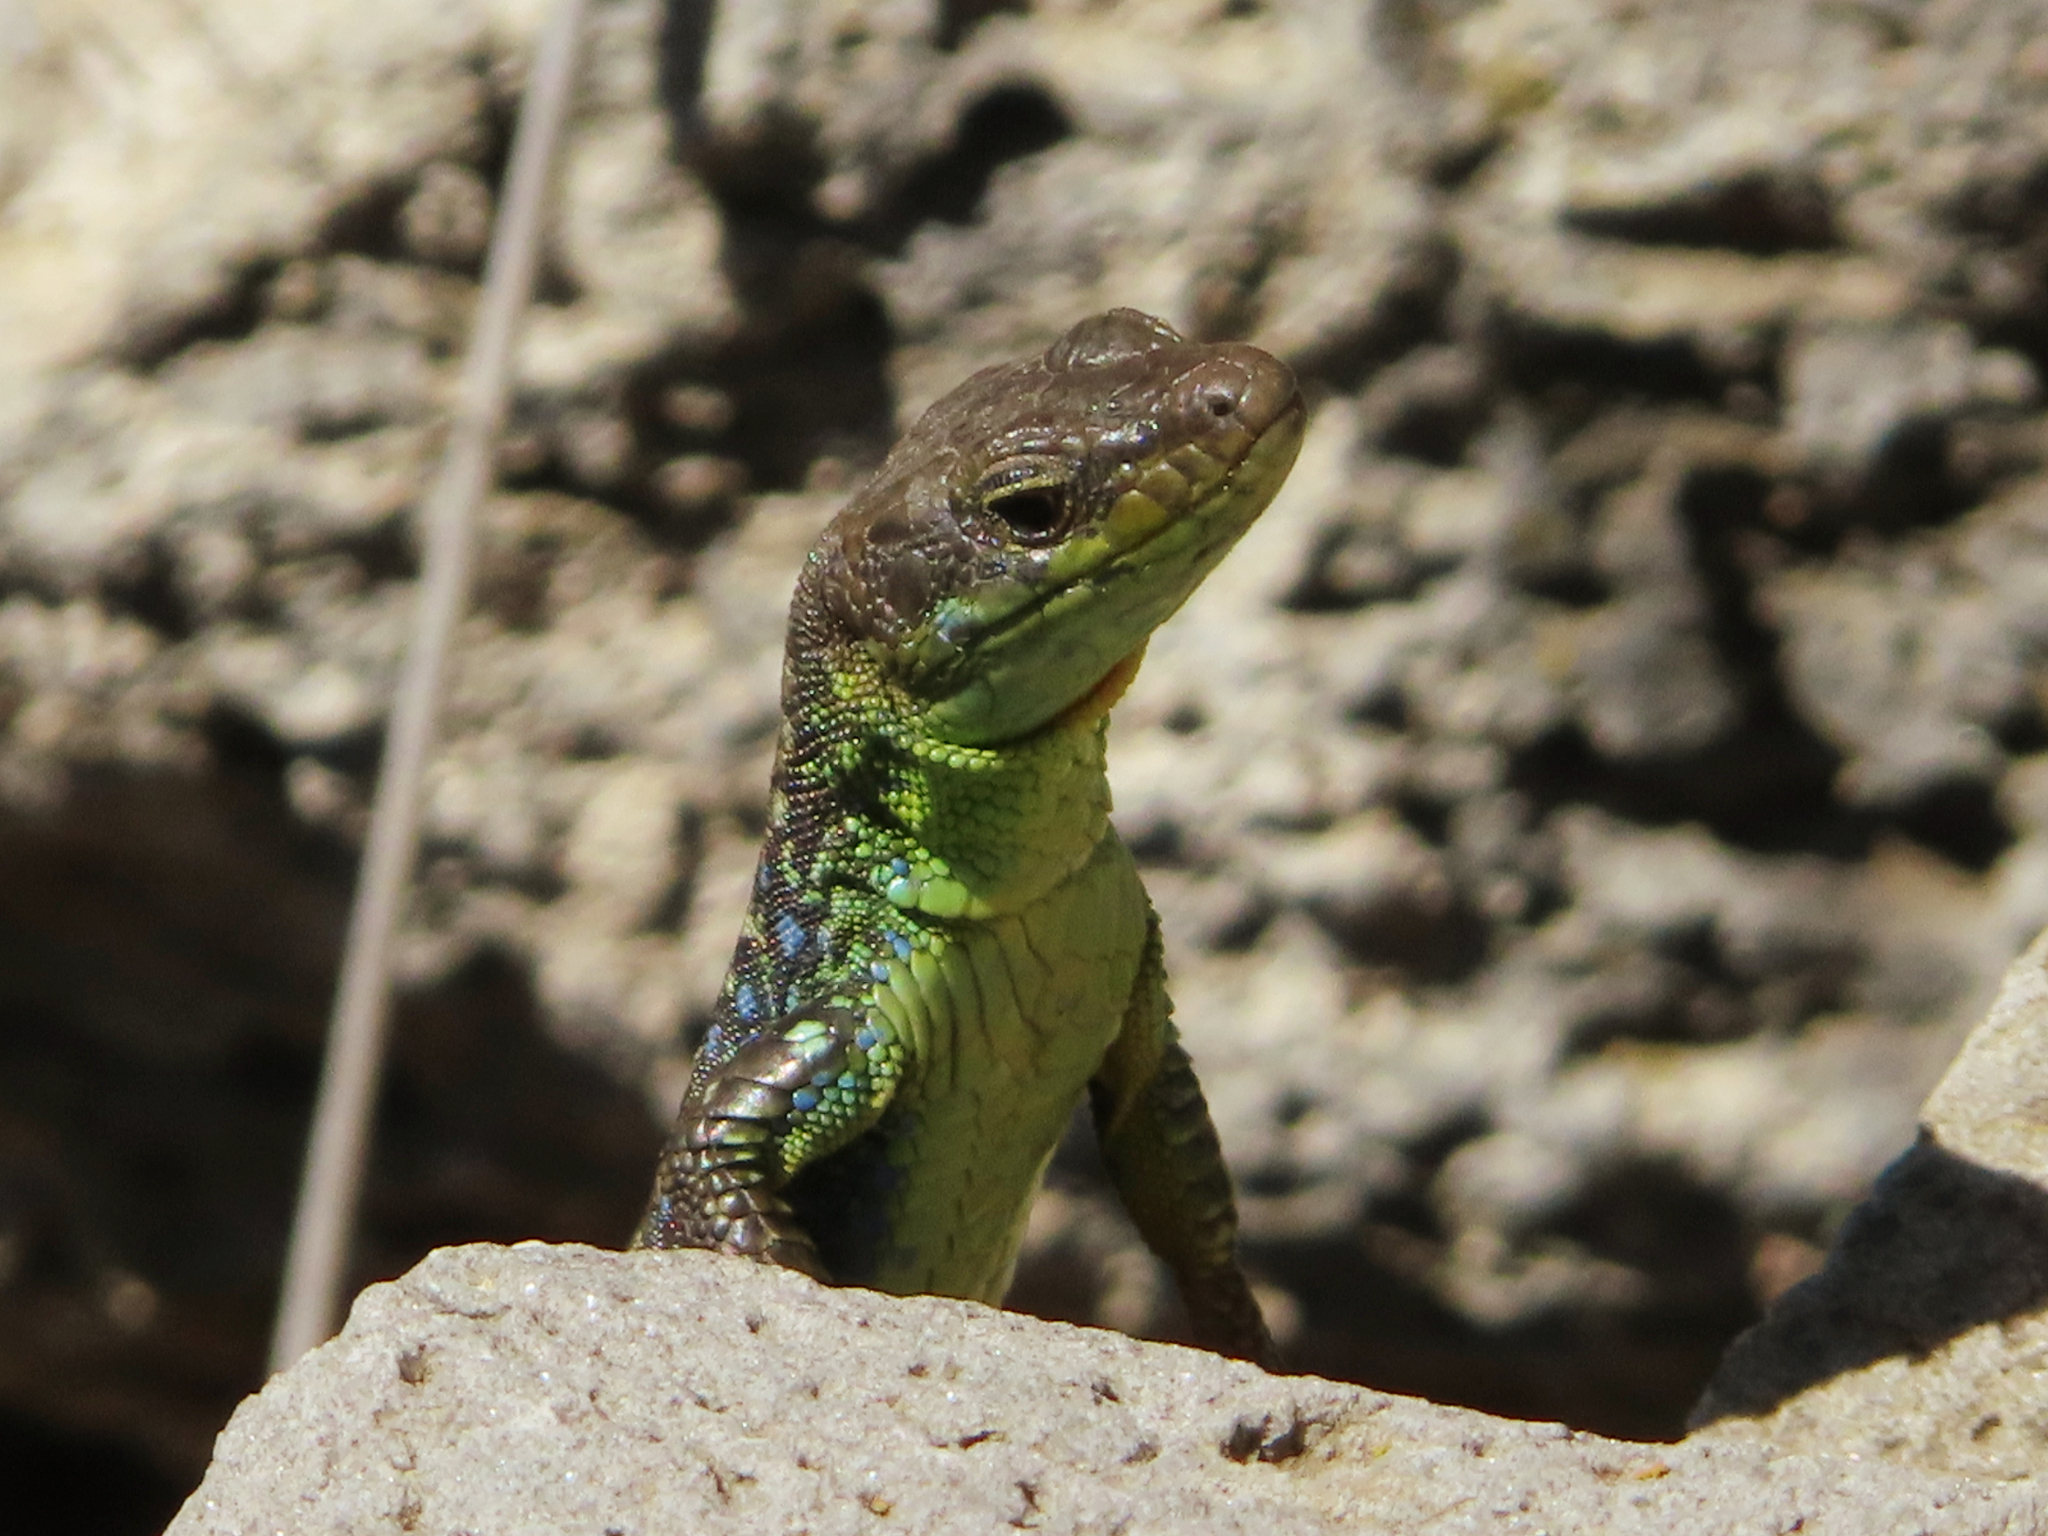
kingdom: Animalia
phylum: Chordata
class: Squamata
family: Lacertidae
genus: Darevskia
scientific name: Darevskia raddei
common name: Radde's lizard
